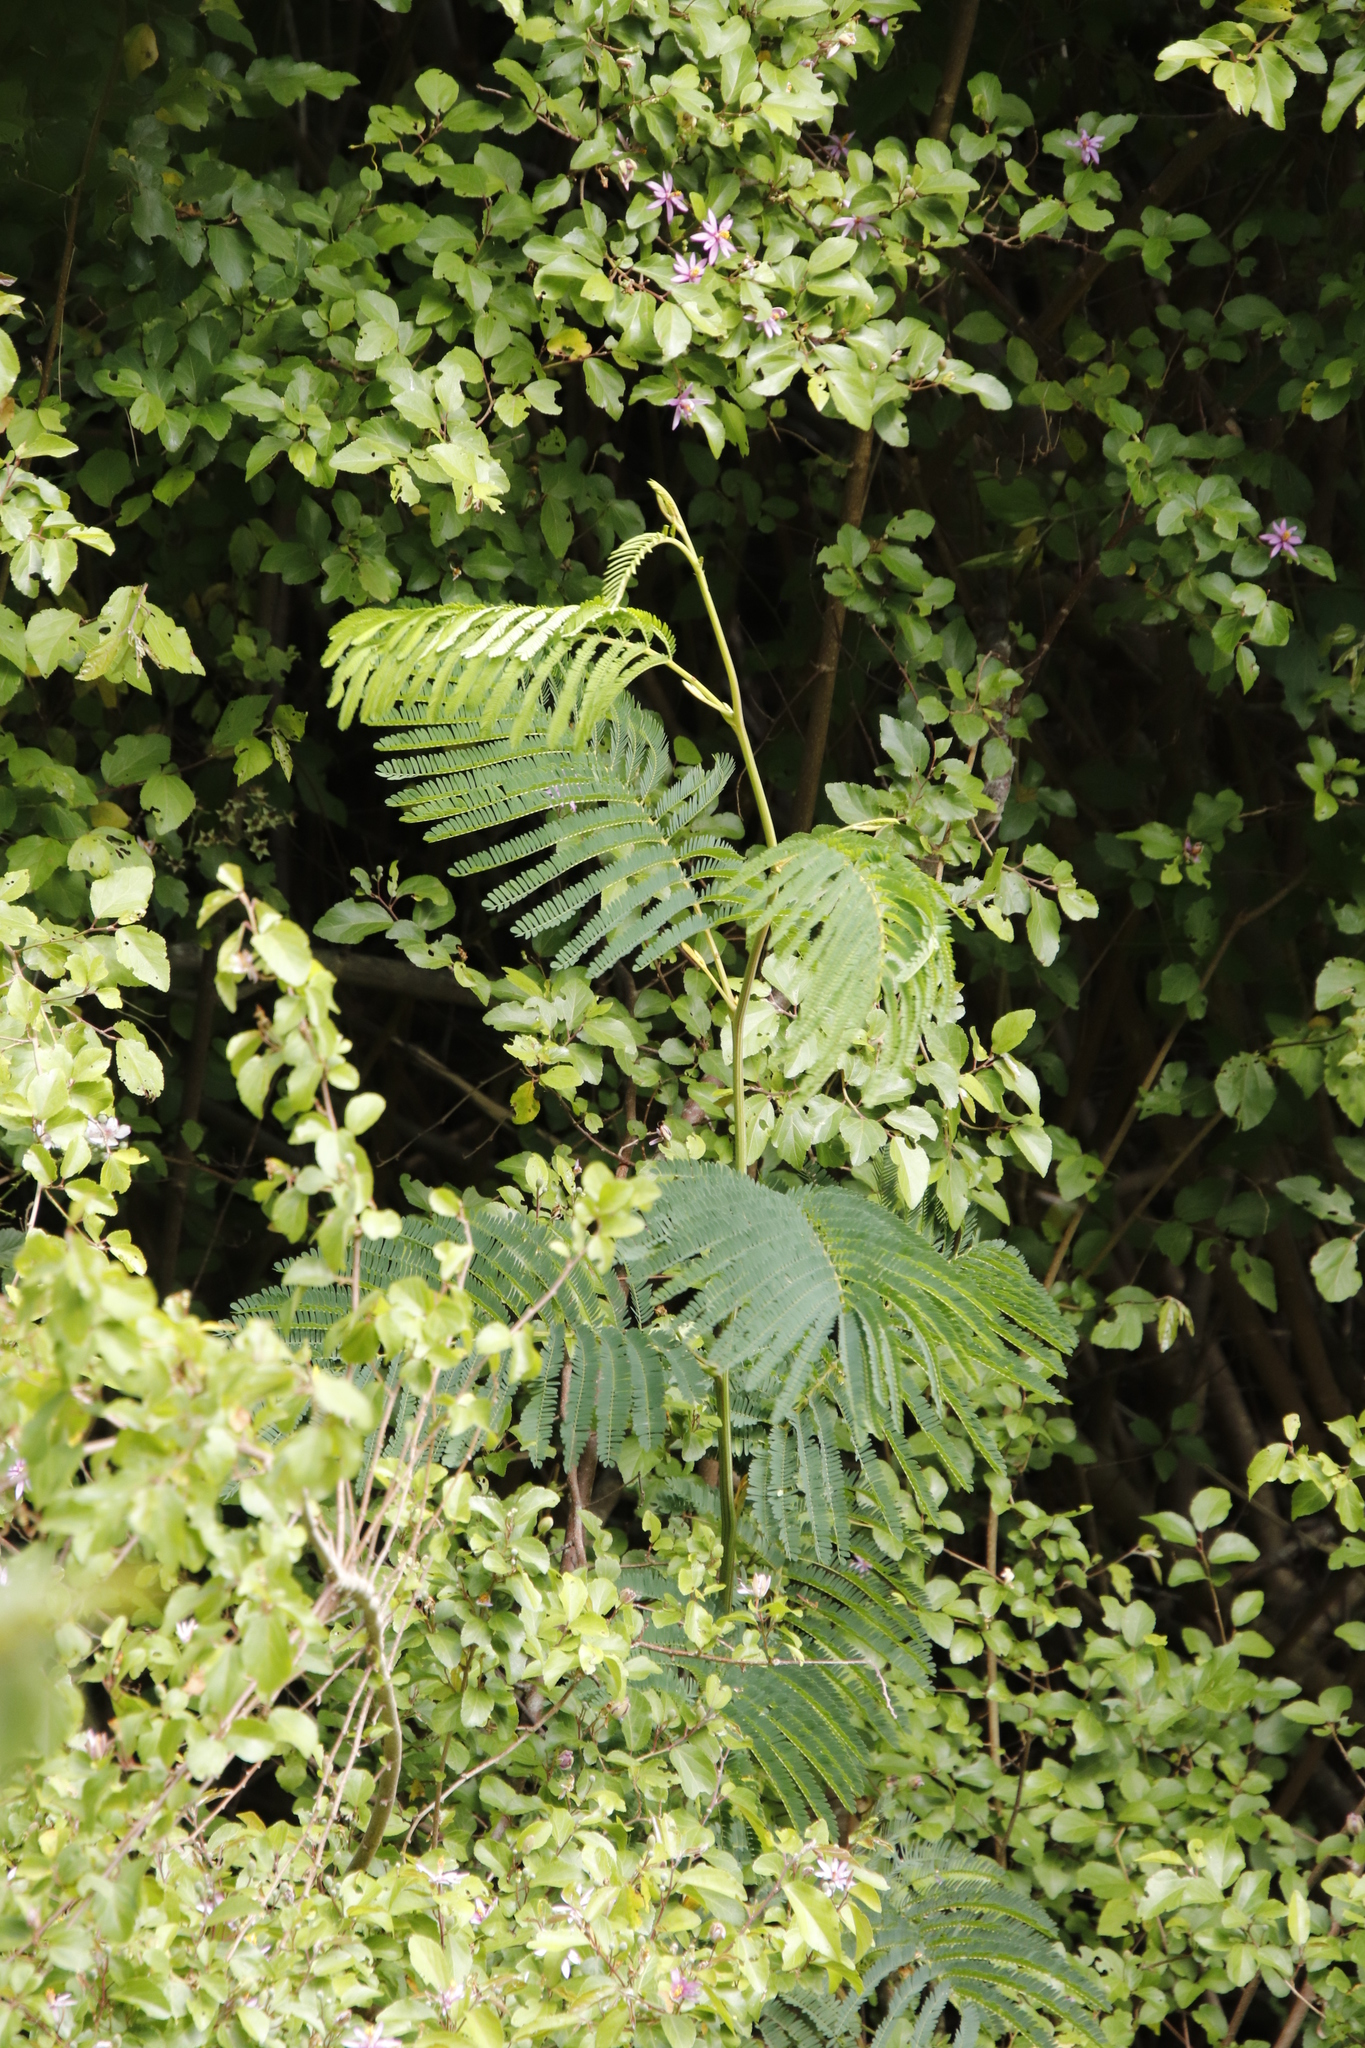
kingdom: Plantae
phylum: Tracheophyta
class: Magnoliopsida
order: Fabales
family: Fabaceae
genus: Paraserianthes
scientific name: Paraserianthes lophantha
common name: Plume albizia
